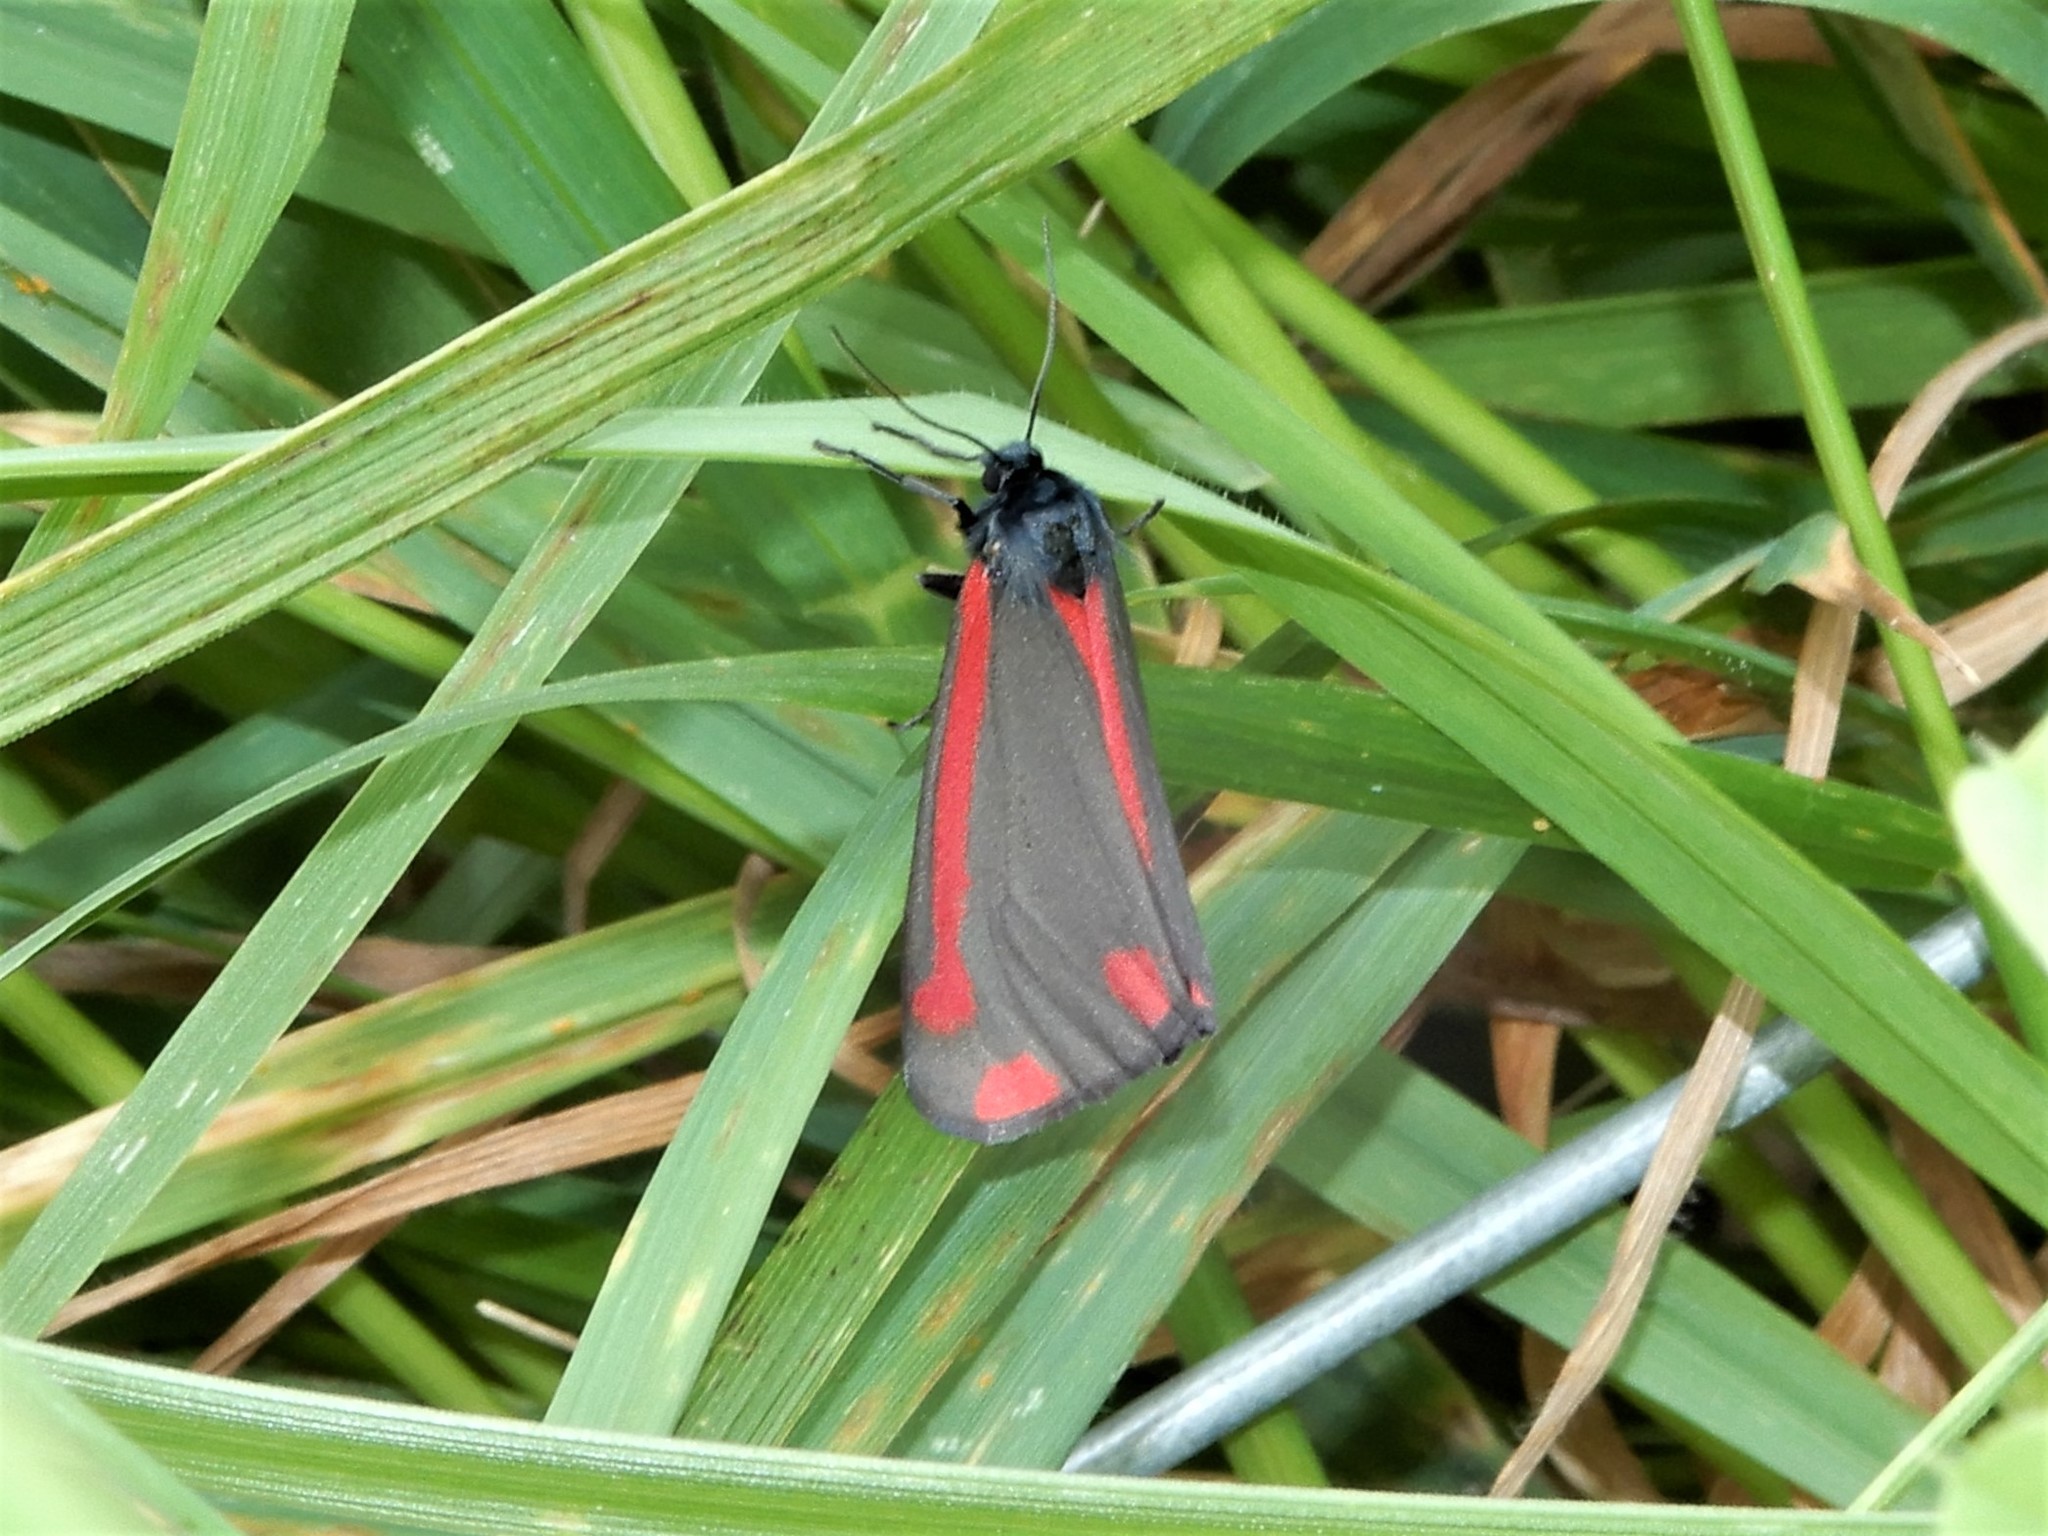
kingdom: Animalia
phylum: Arthropoda
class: Insecta
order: Lepidoptera
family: Erebidae
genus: Tyria
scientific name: Tyria jacobaeae
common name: Cinnabar
